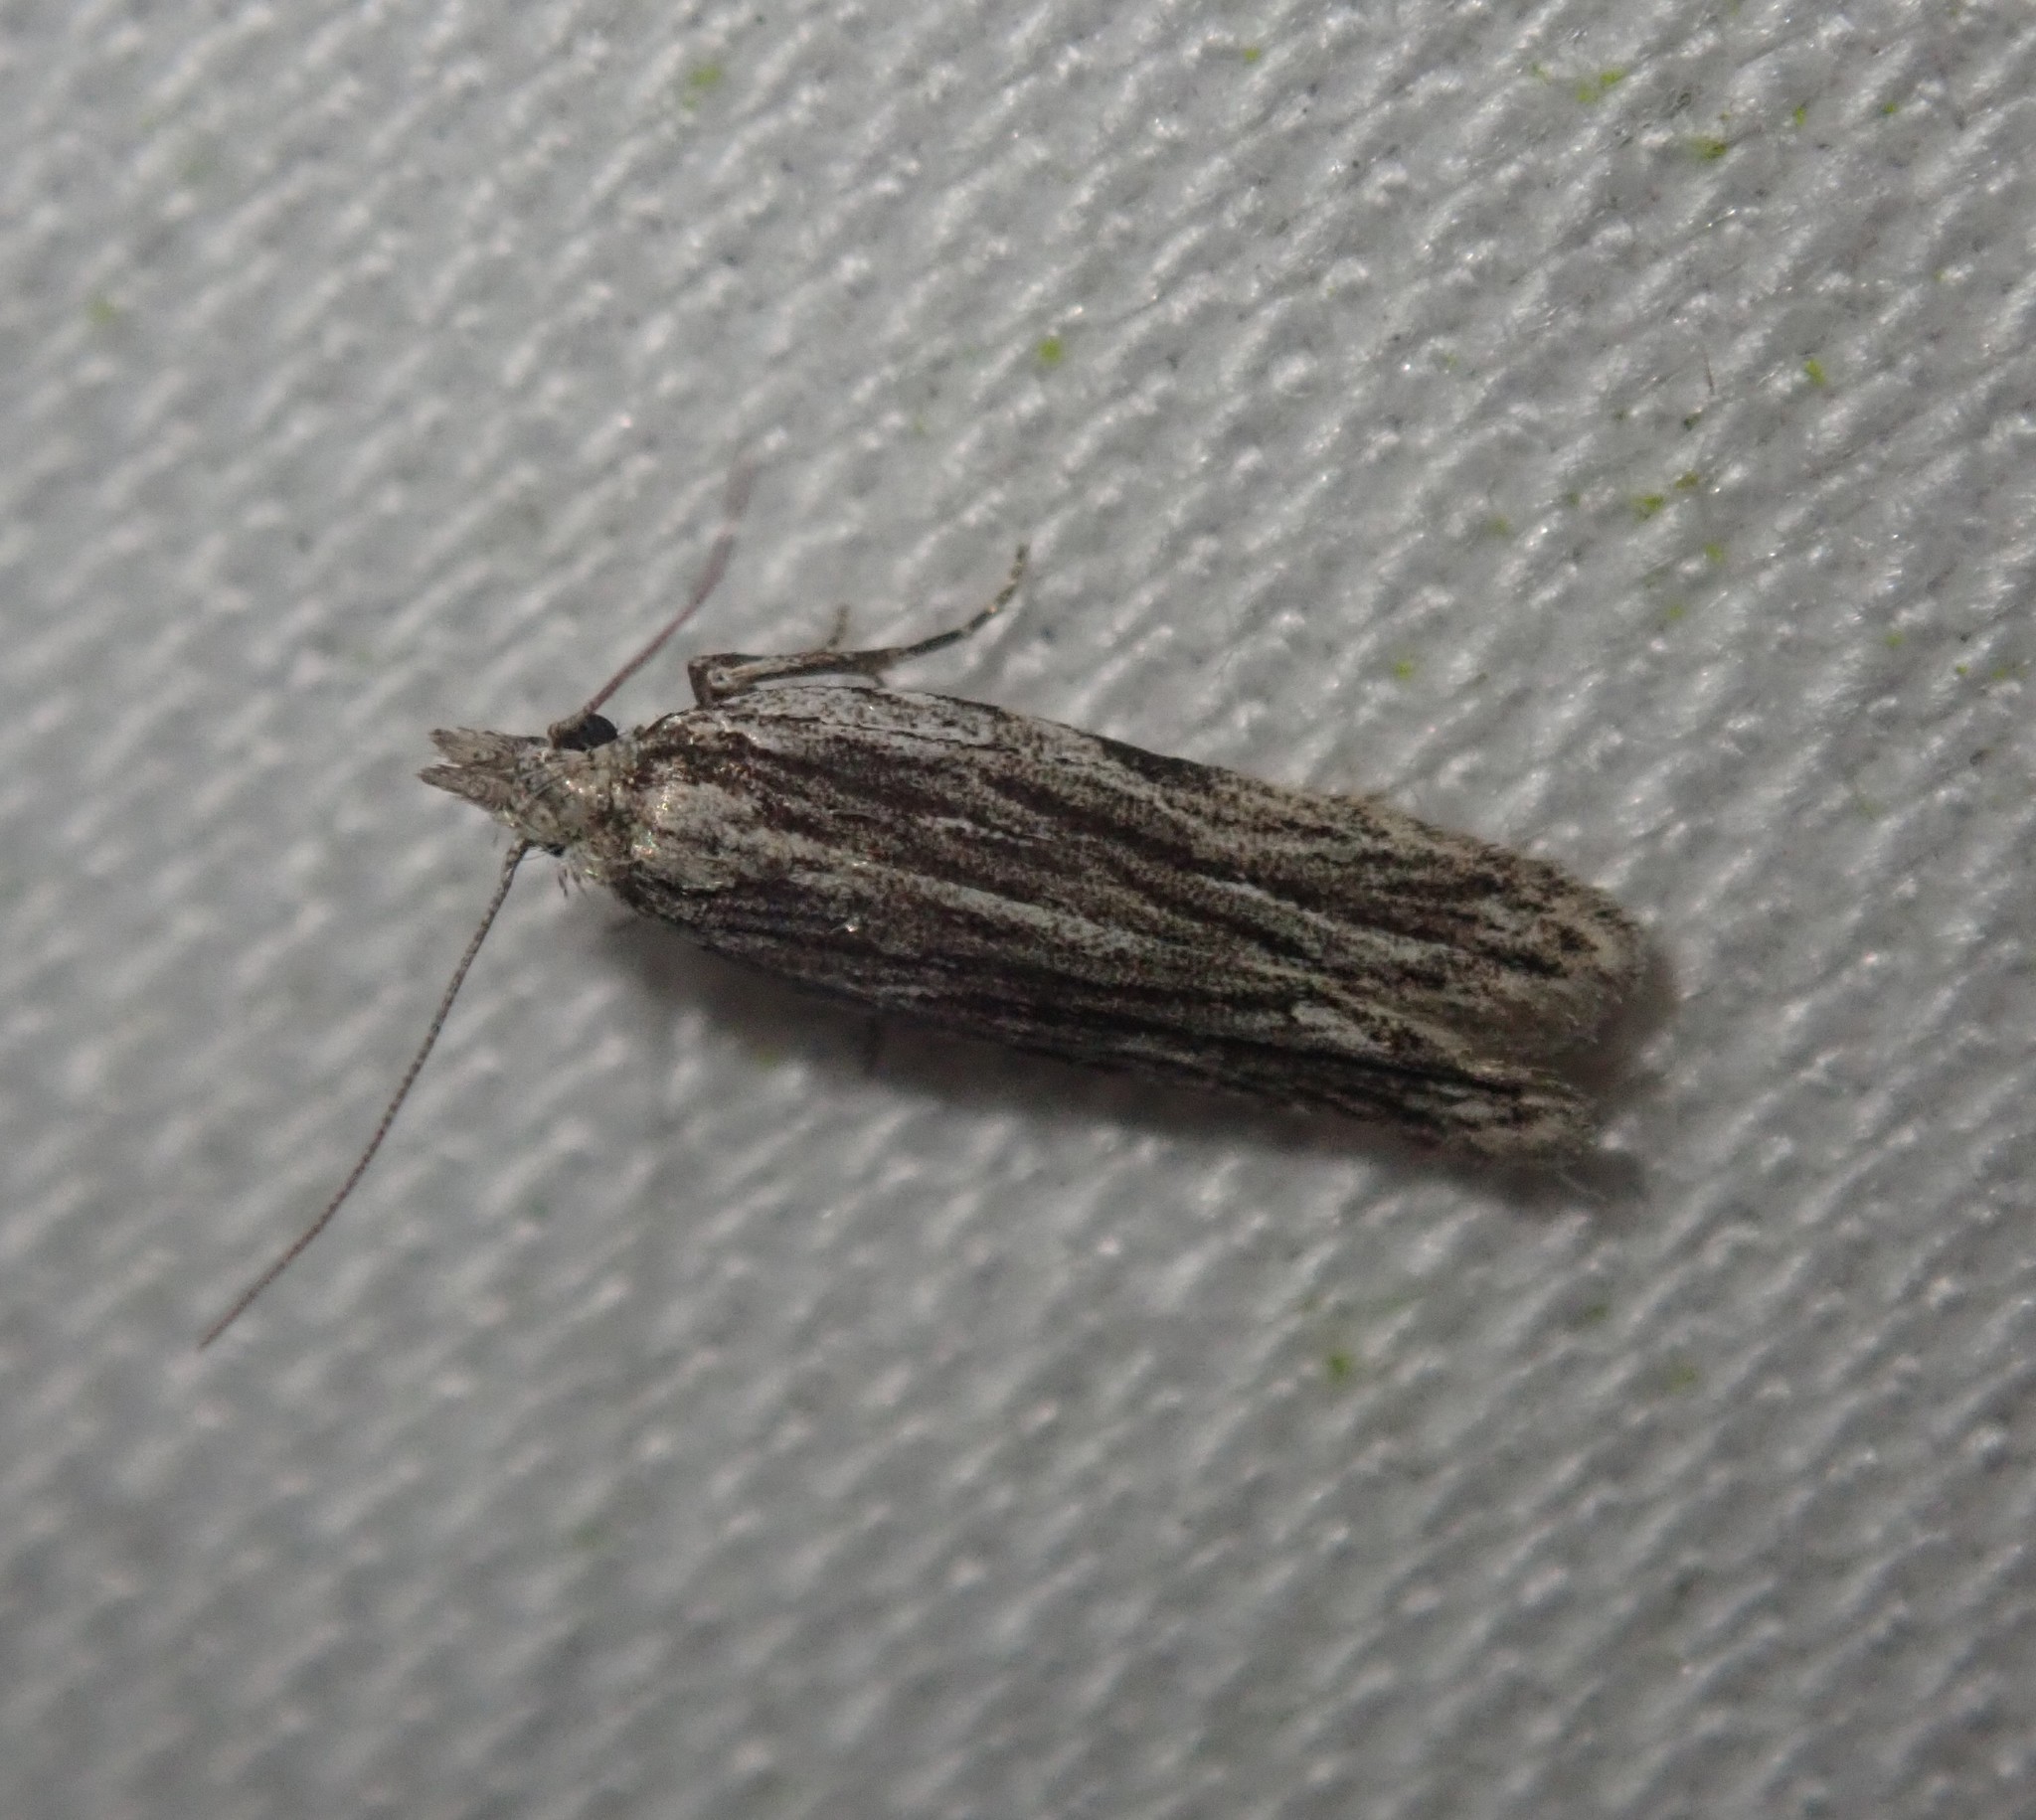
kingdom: Animalia
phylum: Arthropoda
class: Insecta
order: Lepidoptera
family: Gelechiidae
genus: Anarsia
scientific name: Anarsia innoxiella
